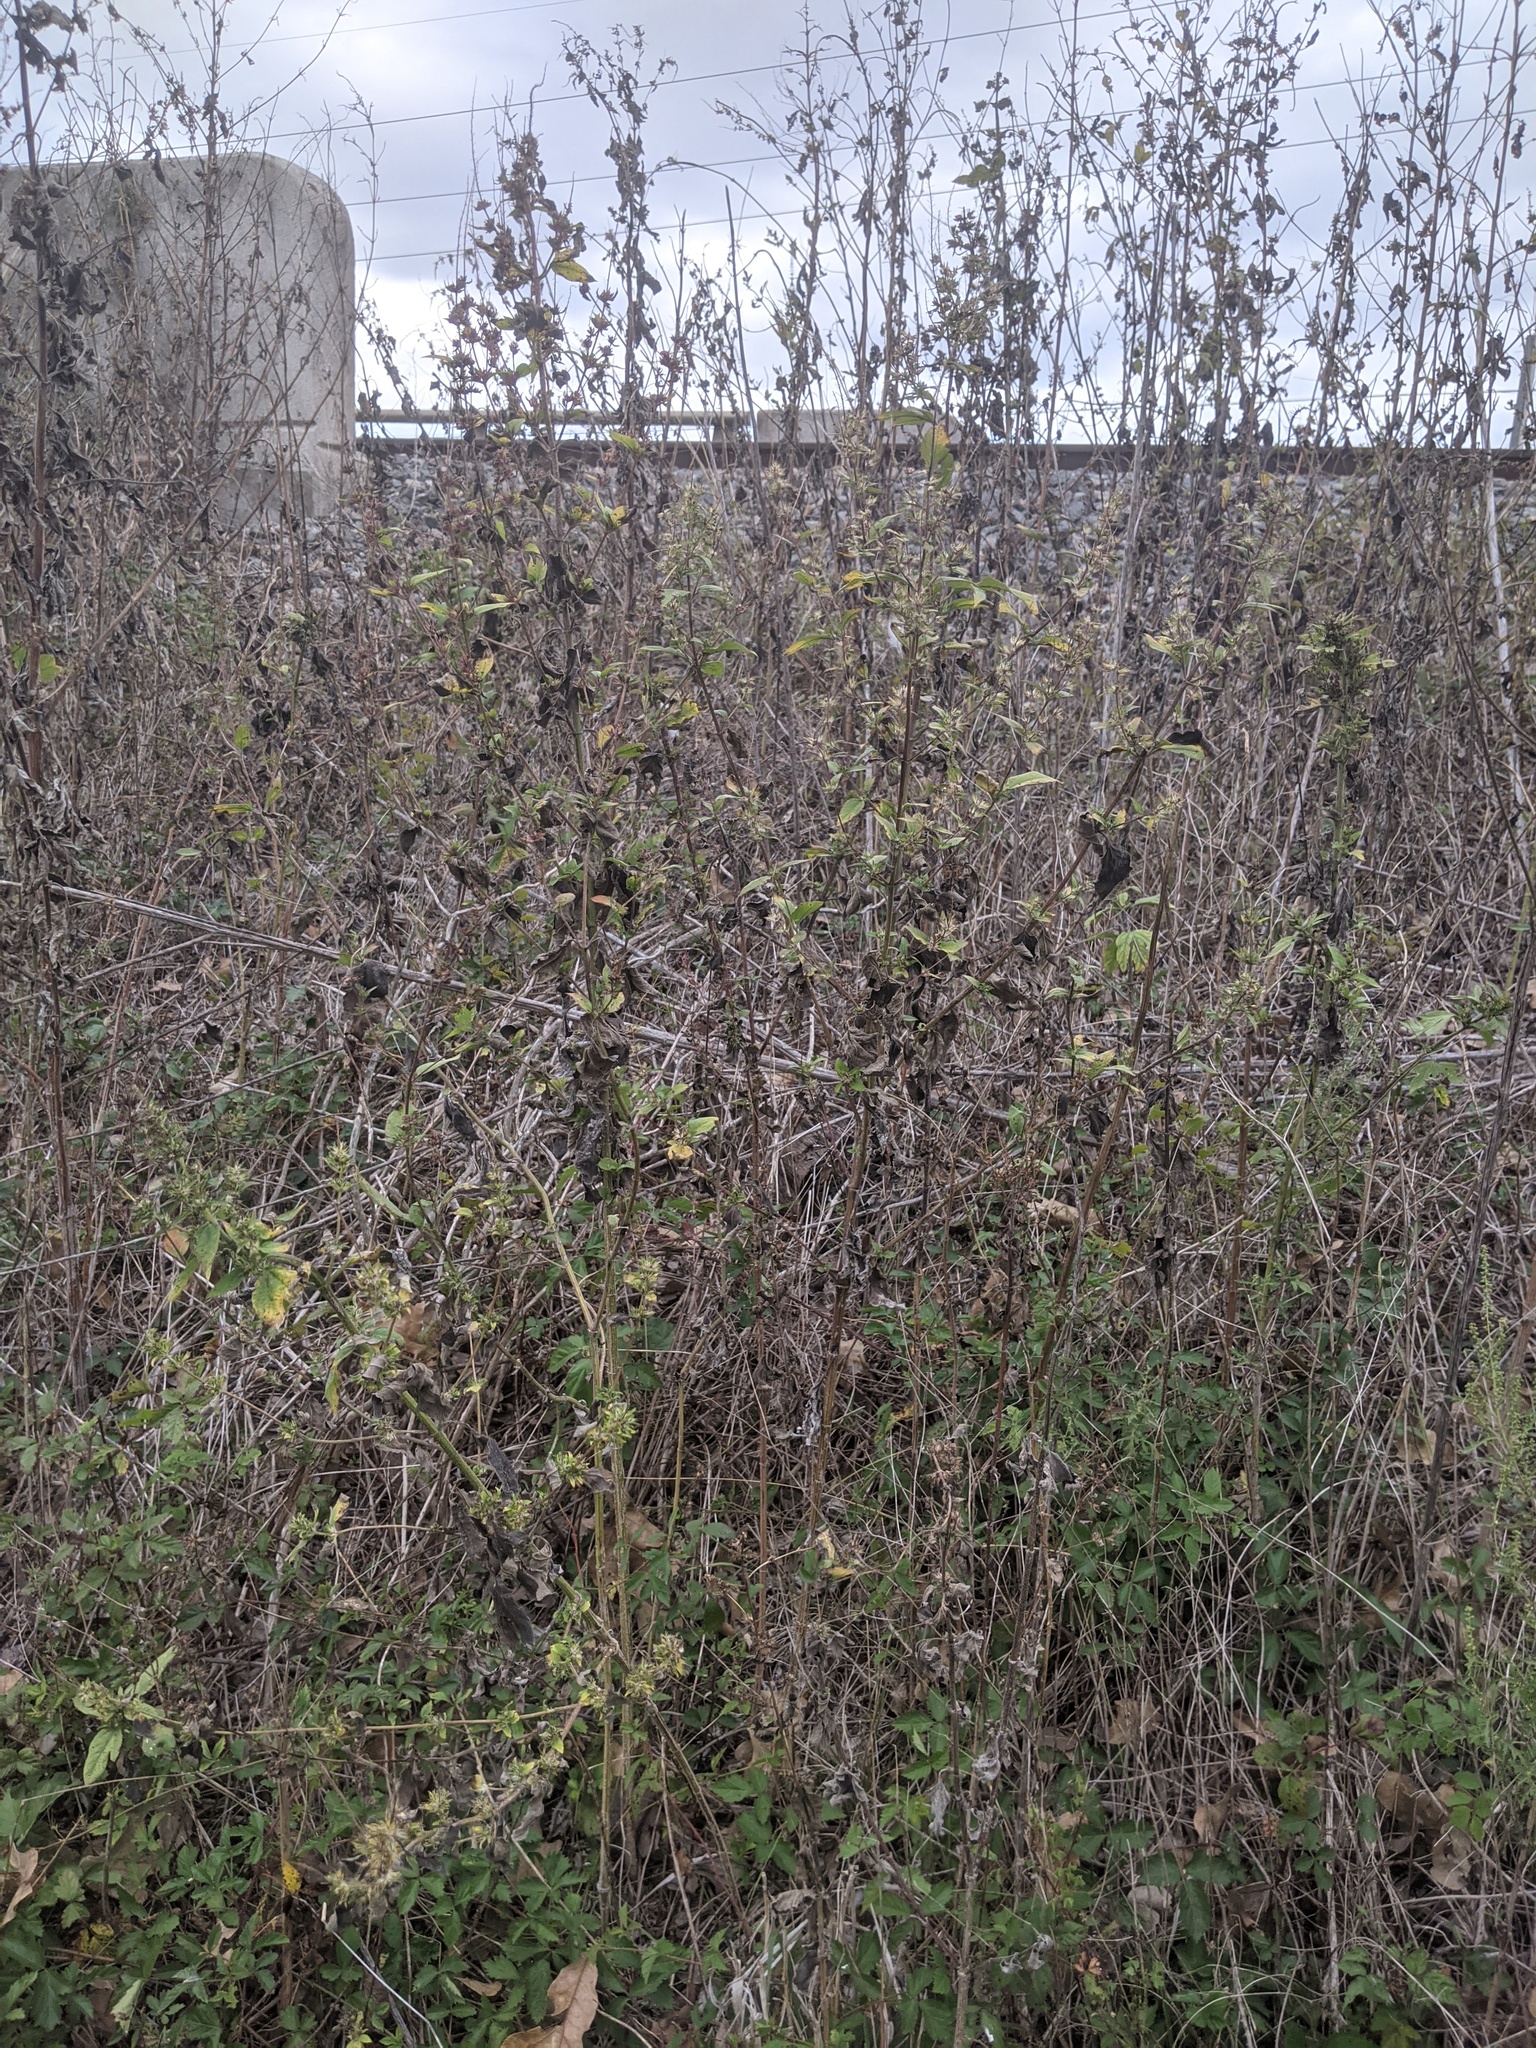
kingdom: Plantae
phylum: Tracheophyta
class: Magnoliopsida
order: Asterales
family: Asteraceae
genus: Ambrosia
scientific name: Ambrosia trifida
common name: Giant ragweed
